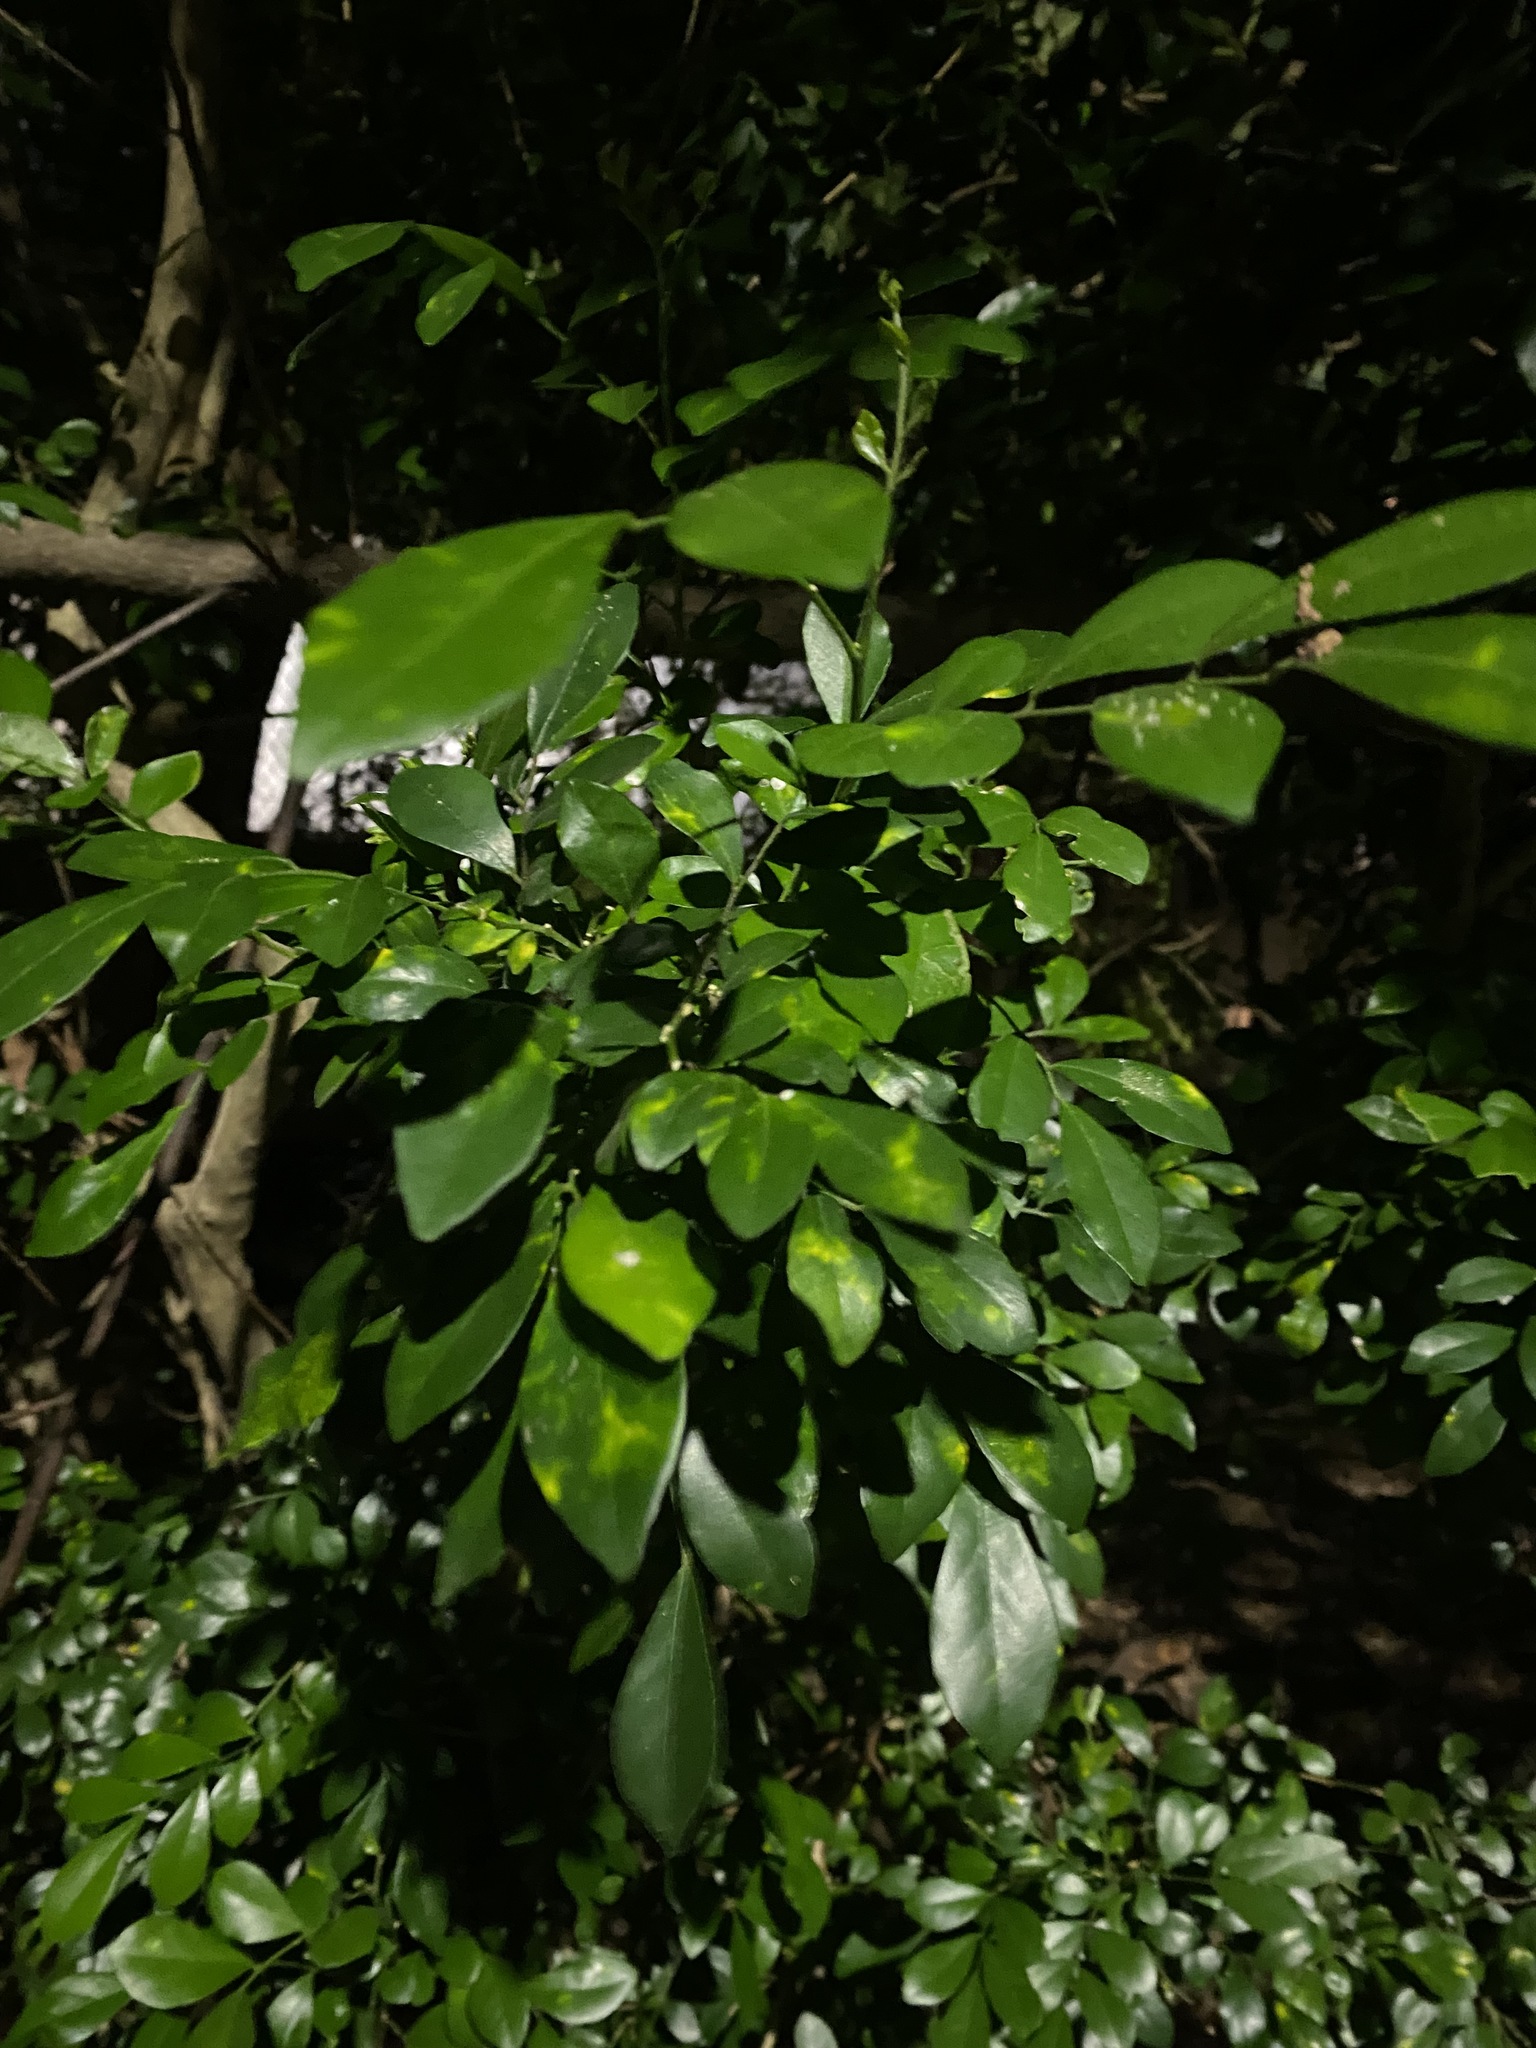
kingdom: Plantae
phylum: Tracheophyta
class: Magnoliopsida
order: Sapindales
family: Rutaceae
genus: Murraya
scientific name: Murraya paniculata
